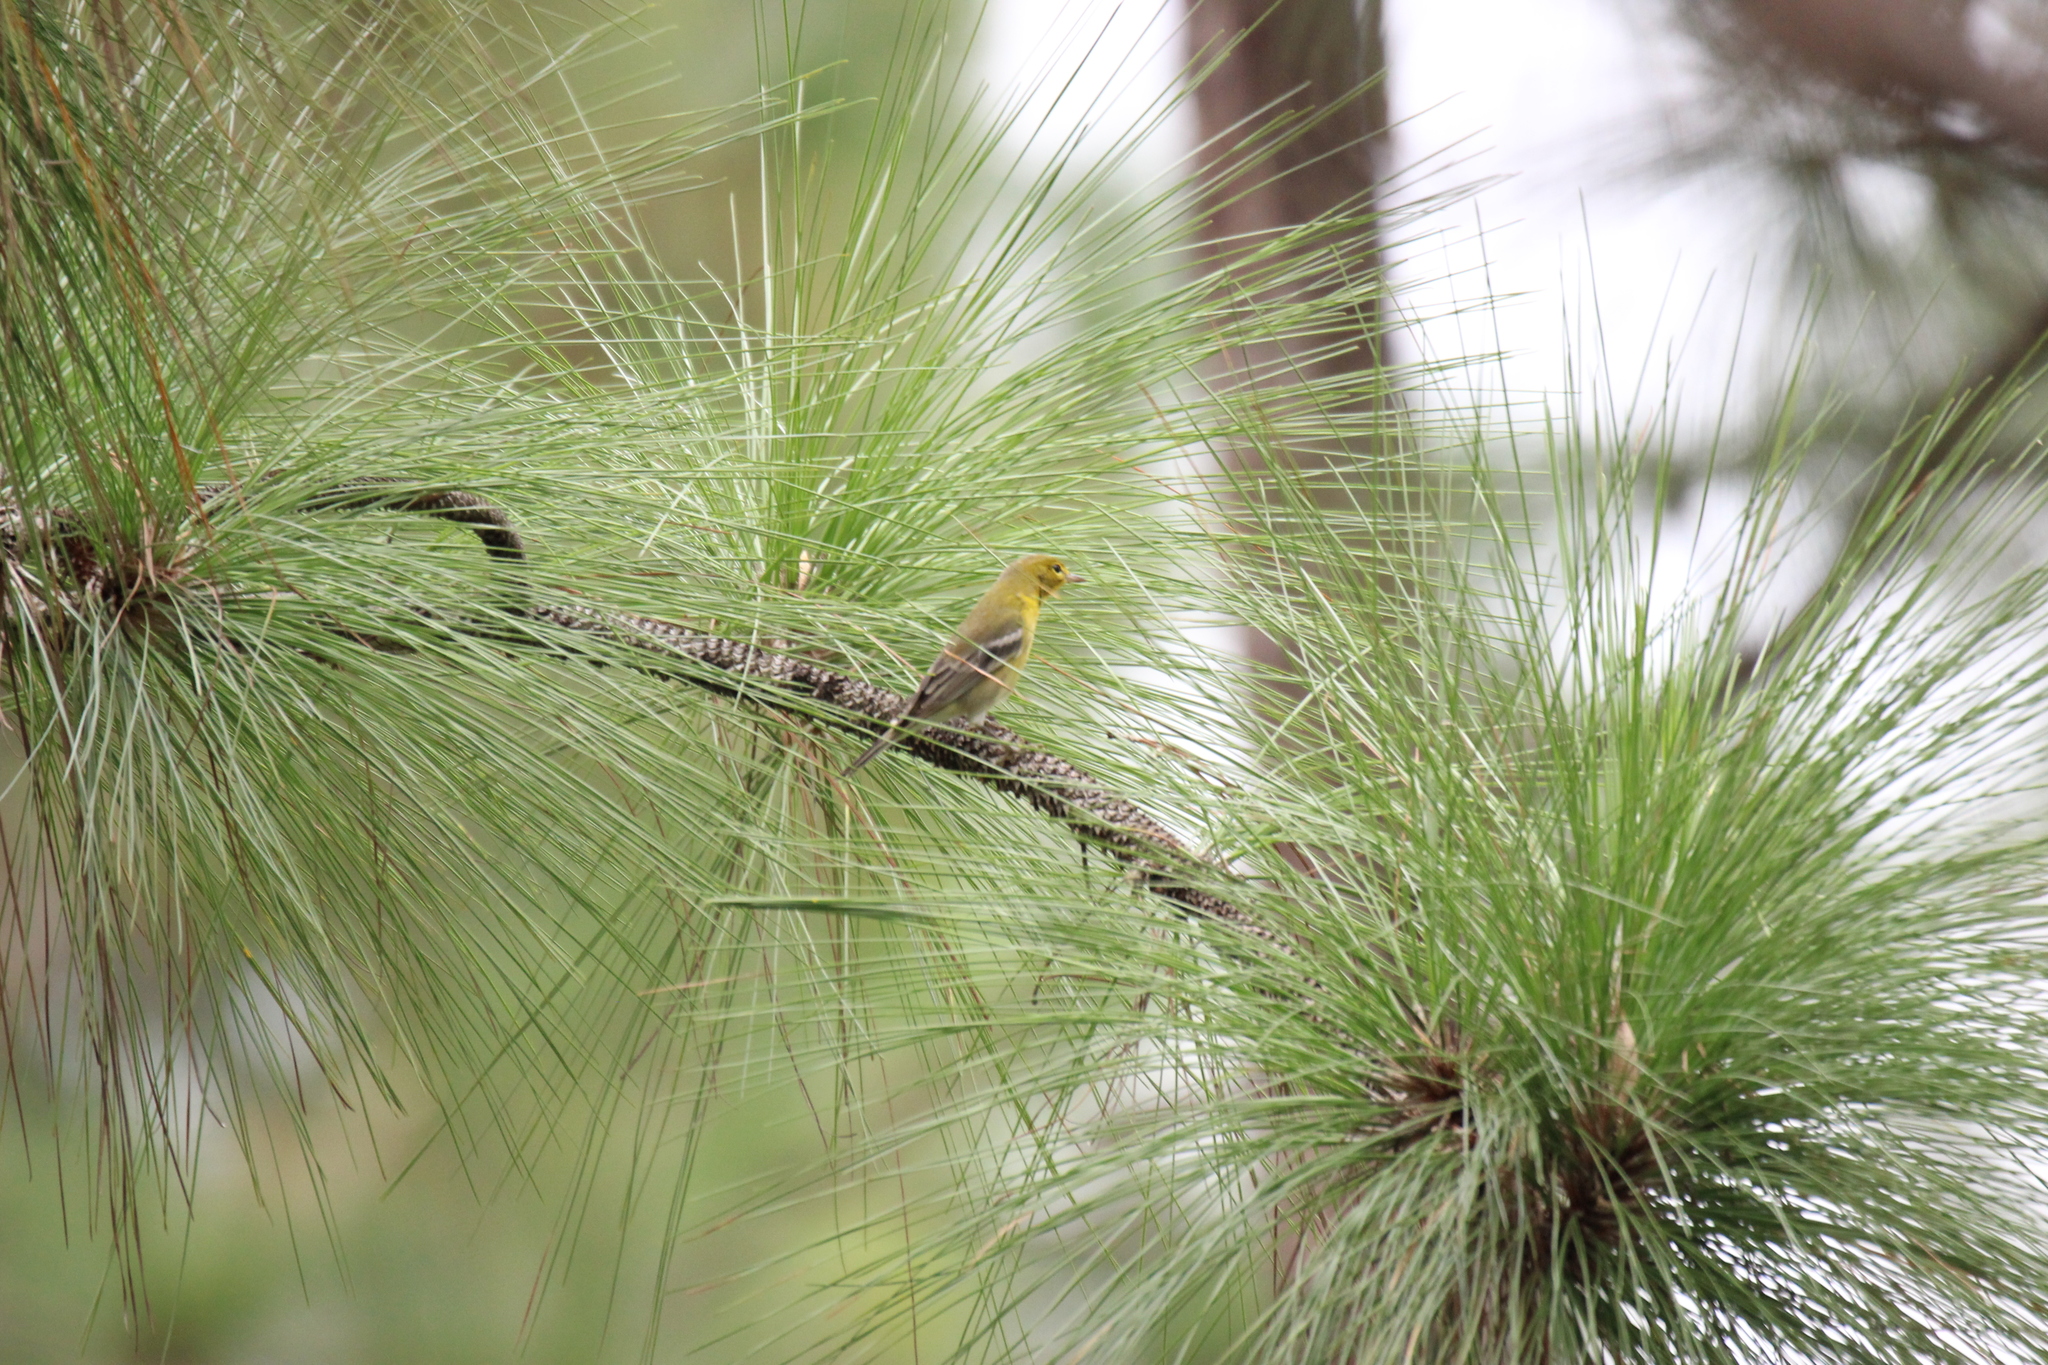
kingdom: Animalia
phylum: Chordata
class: Aves
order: Passeriformes
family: Parulidae
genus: Setophaga
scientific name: Setophaga pinus
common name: Pine warbler
